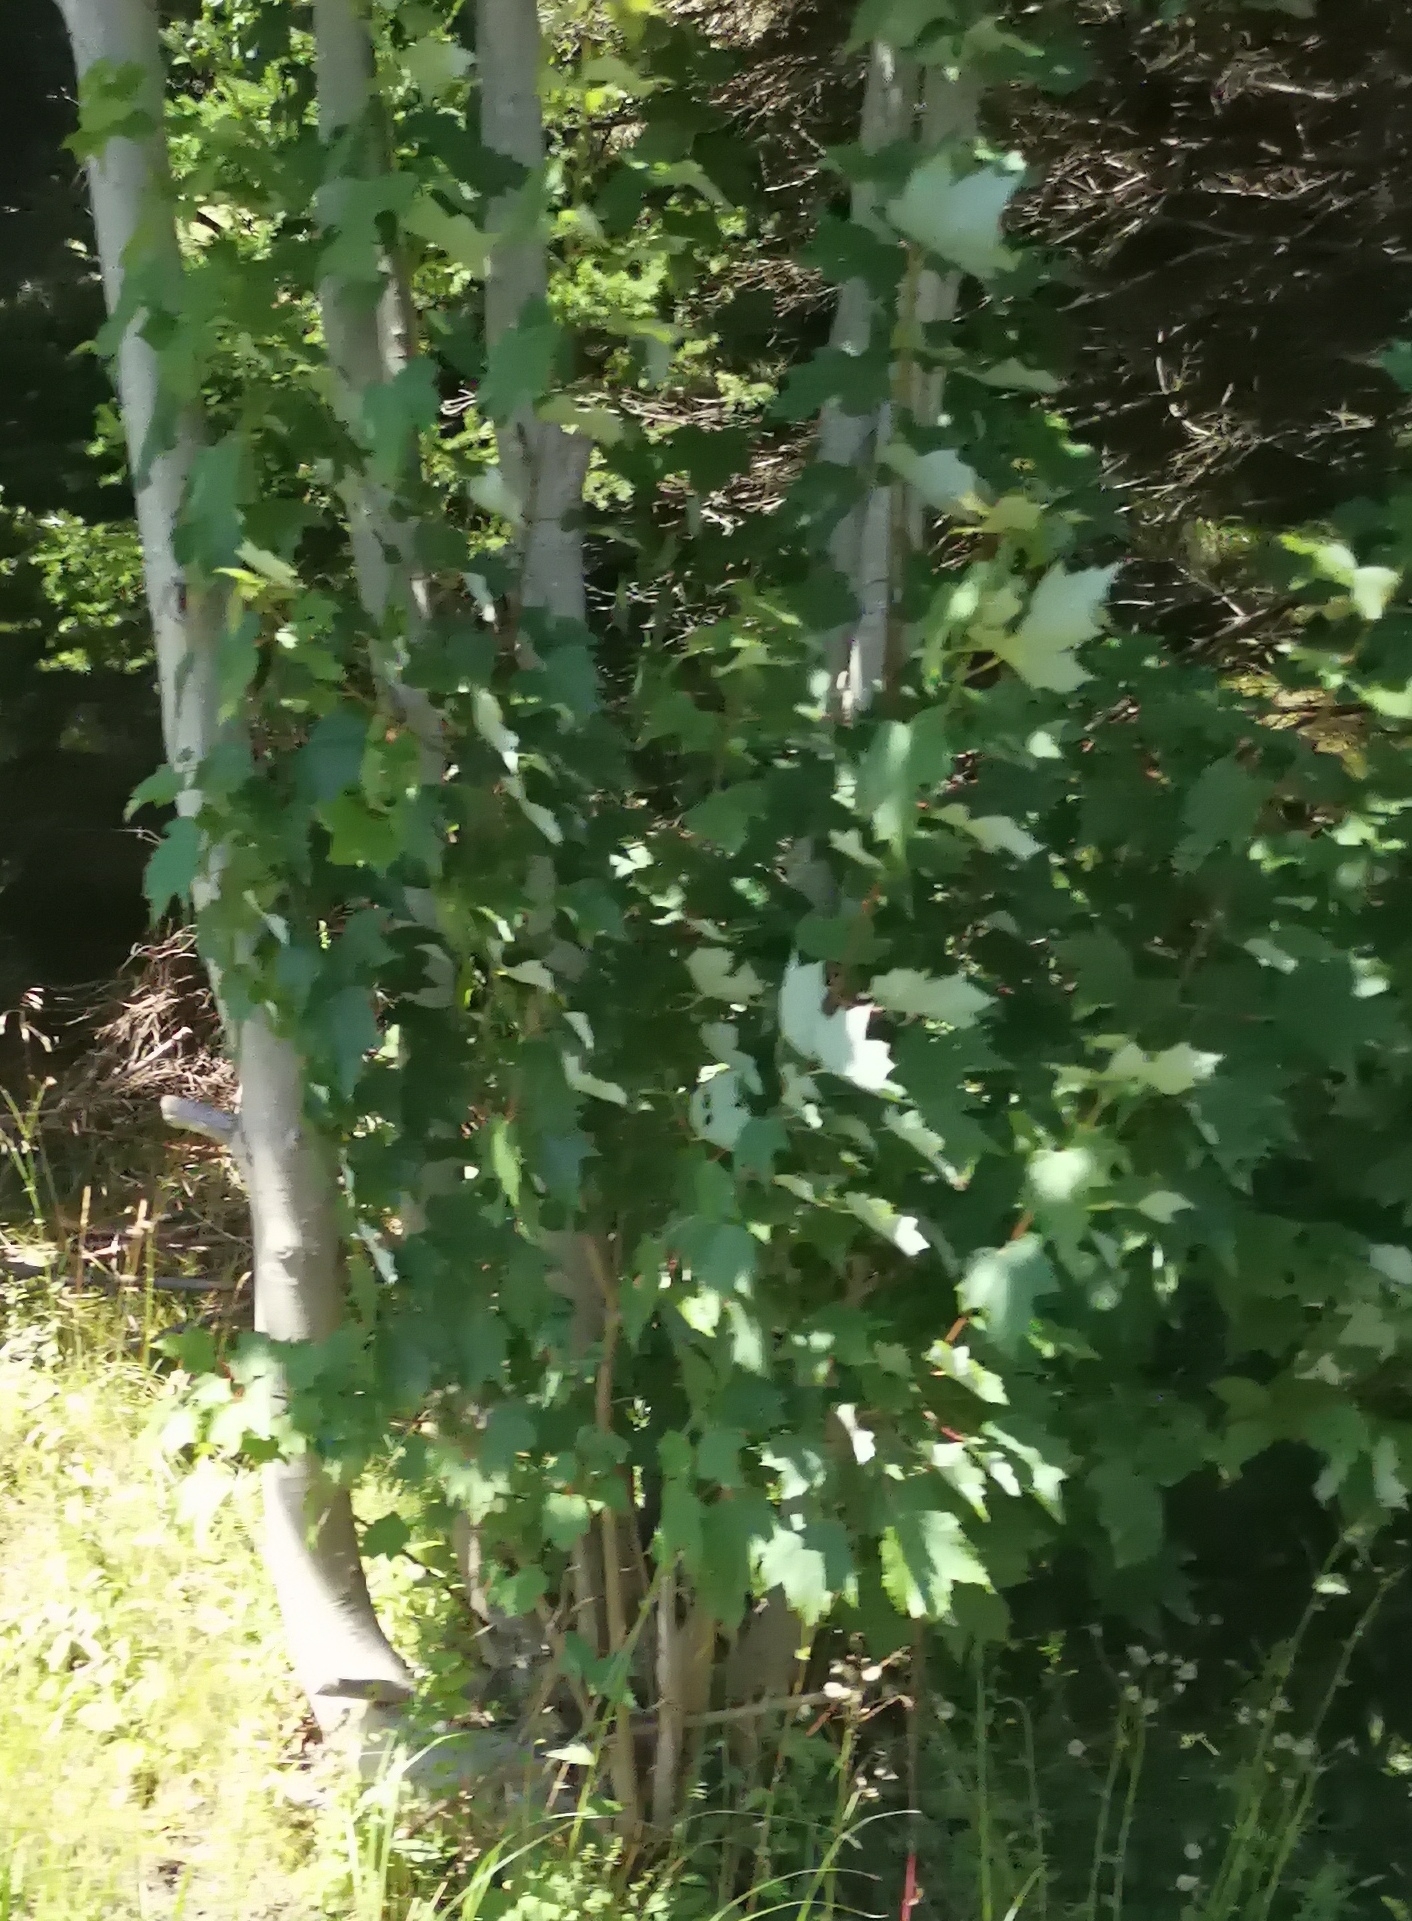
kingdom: Plantae
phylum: Tracheophyta
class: Magnoliopsida
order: Sapindales
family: Sapindaceae
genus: Acer
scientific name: Acer rubrum
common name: Red maple
